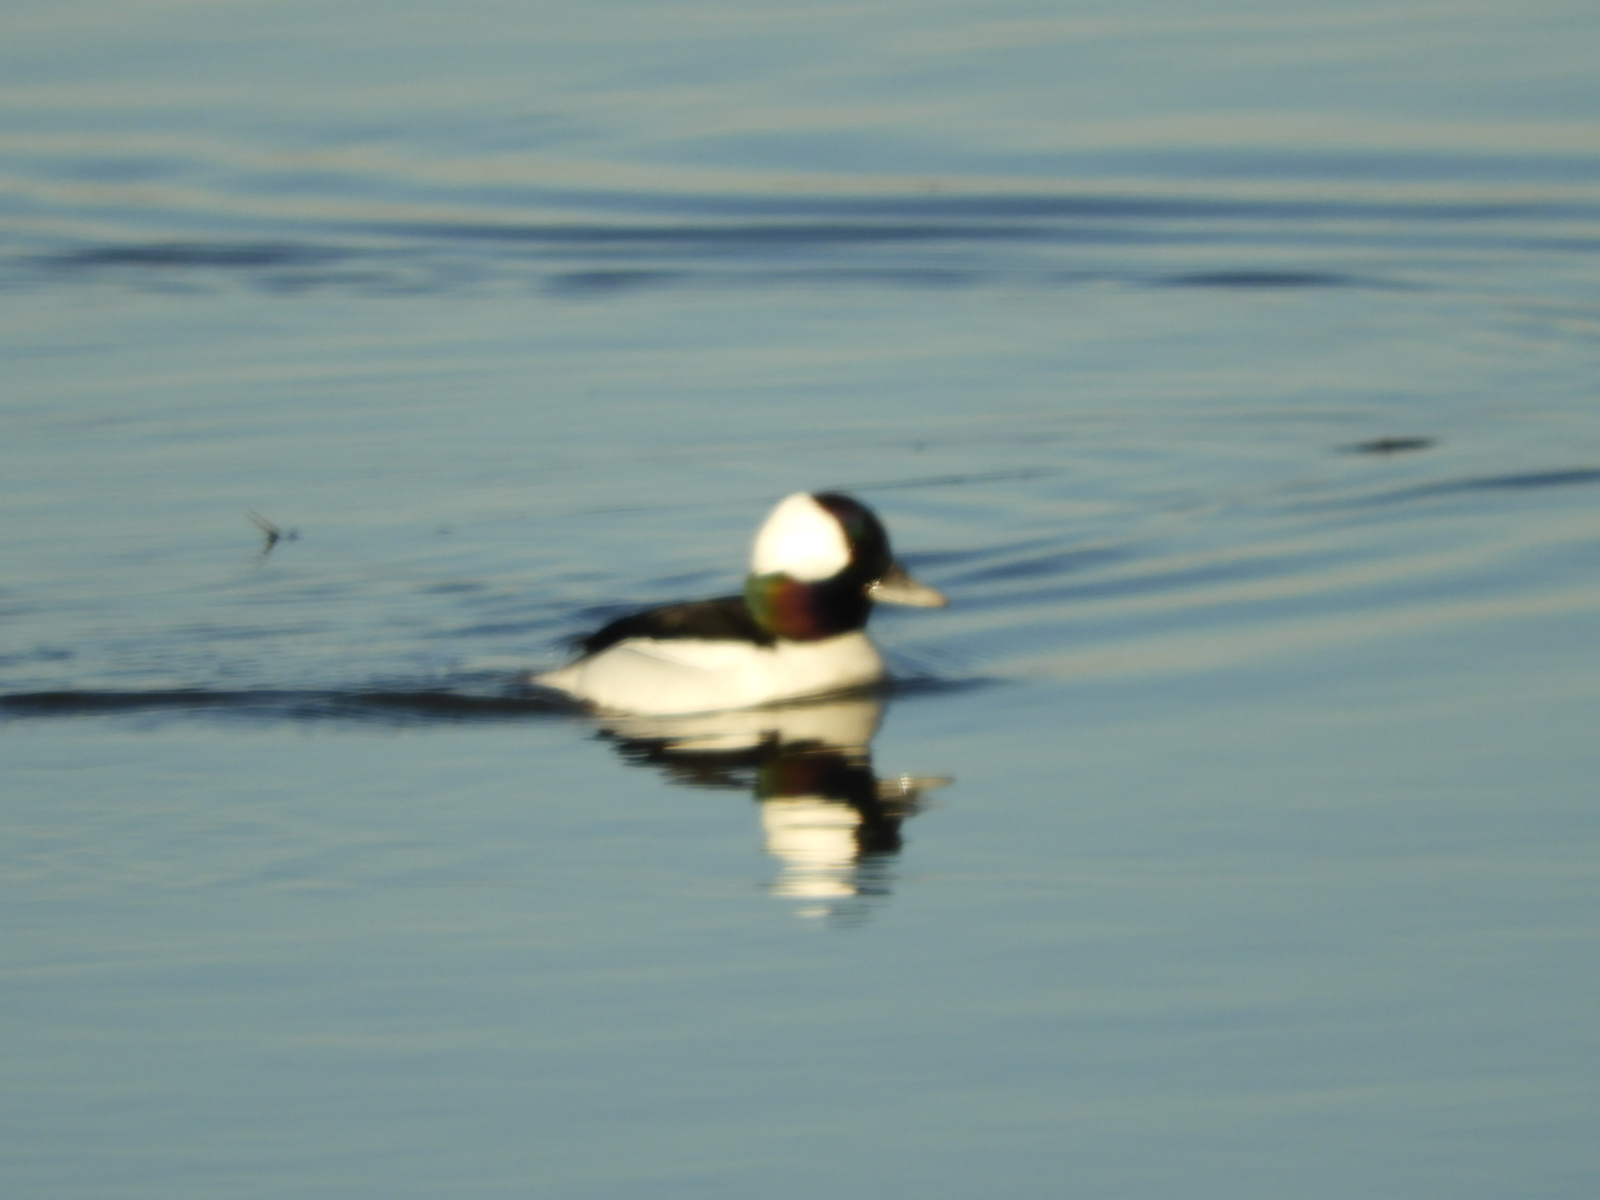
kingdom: Animalia
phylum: Chordata
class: Aves
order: Anseriformes
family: Anatidae
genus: Bucephala
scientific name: Bucephala albeola
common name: Bufflehead
